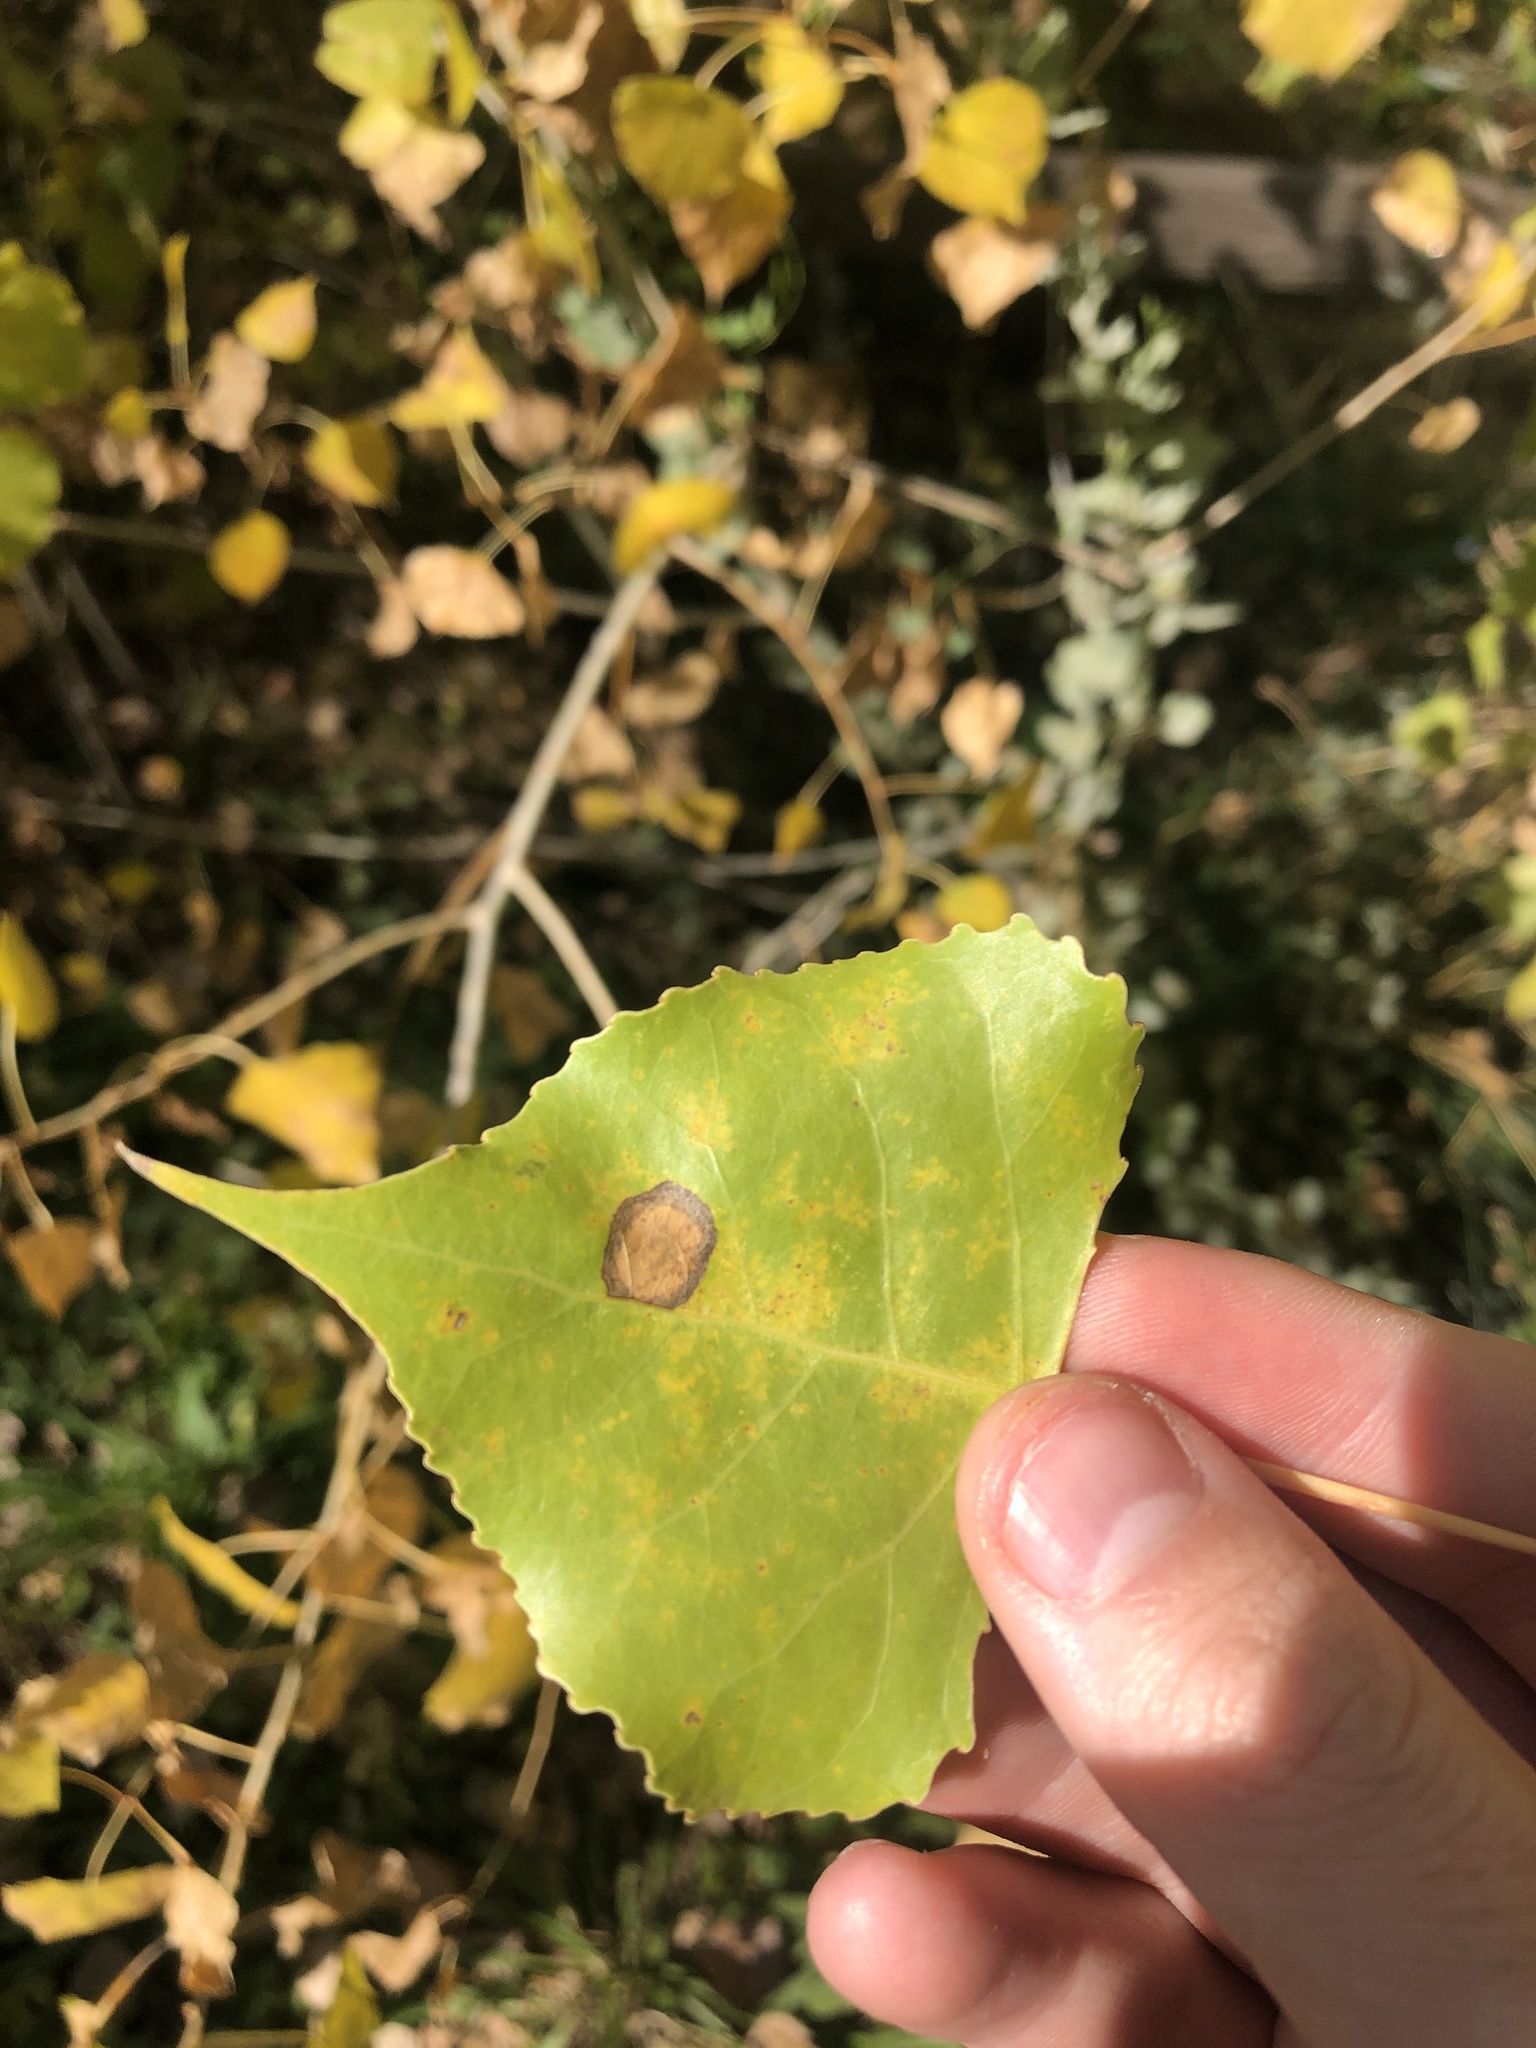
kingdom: Plantae
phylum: Tracheophyta
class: Magnoliopsida
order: Malpighiales
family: Salicaceae
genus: Populus
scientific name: Populus deltoides
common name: Eastern cottonwood
